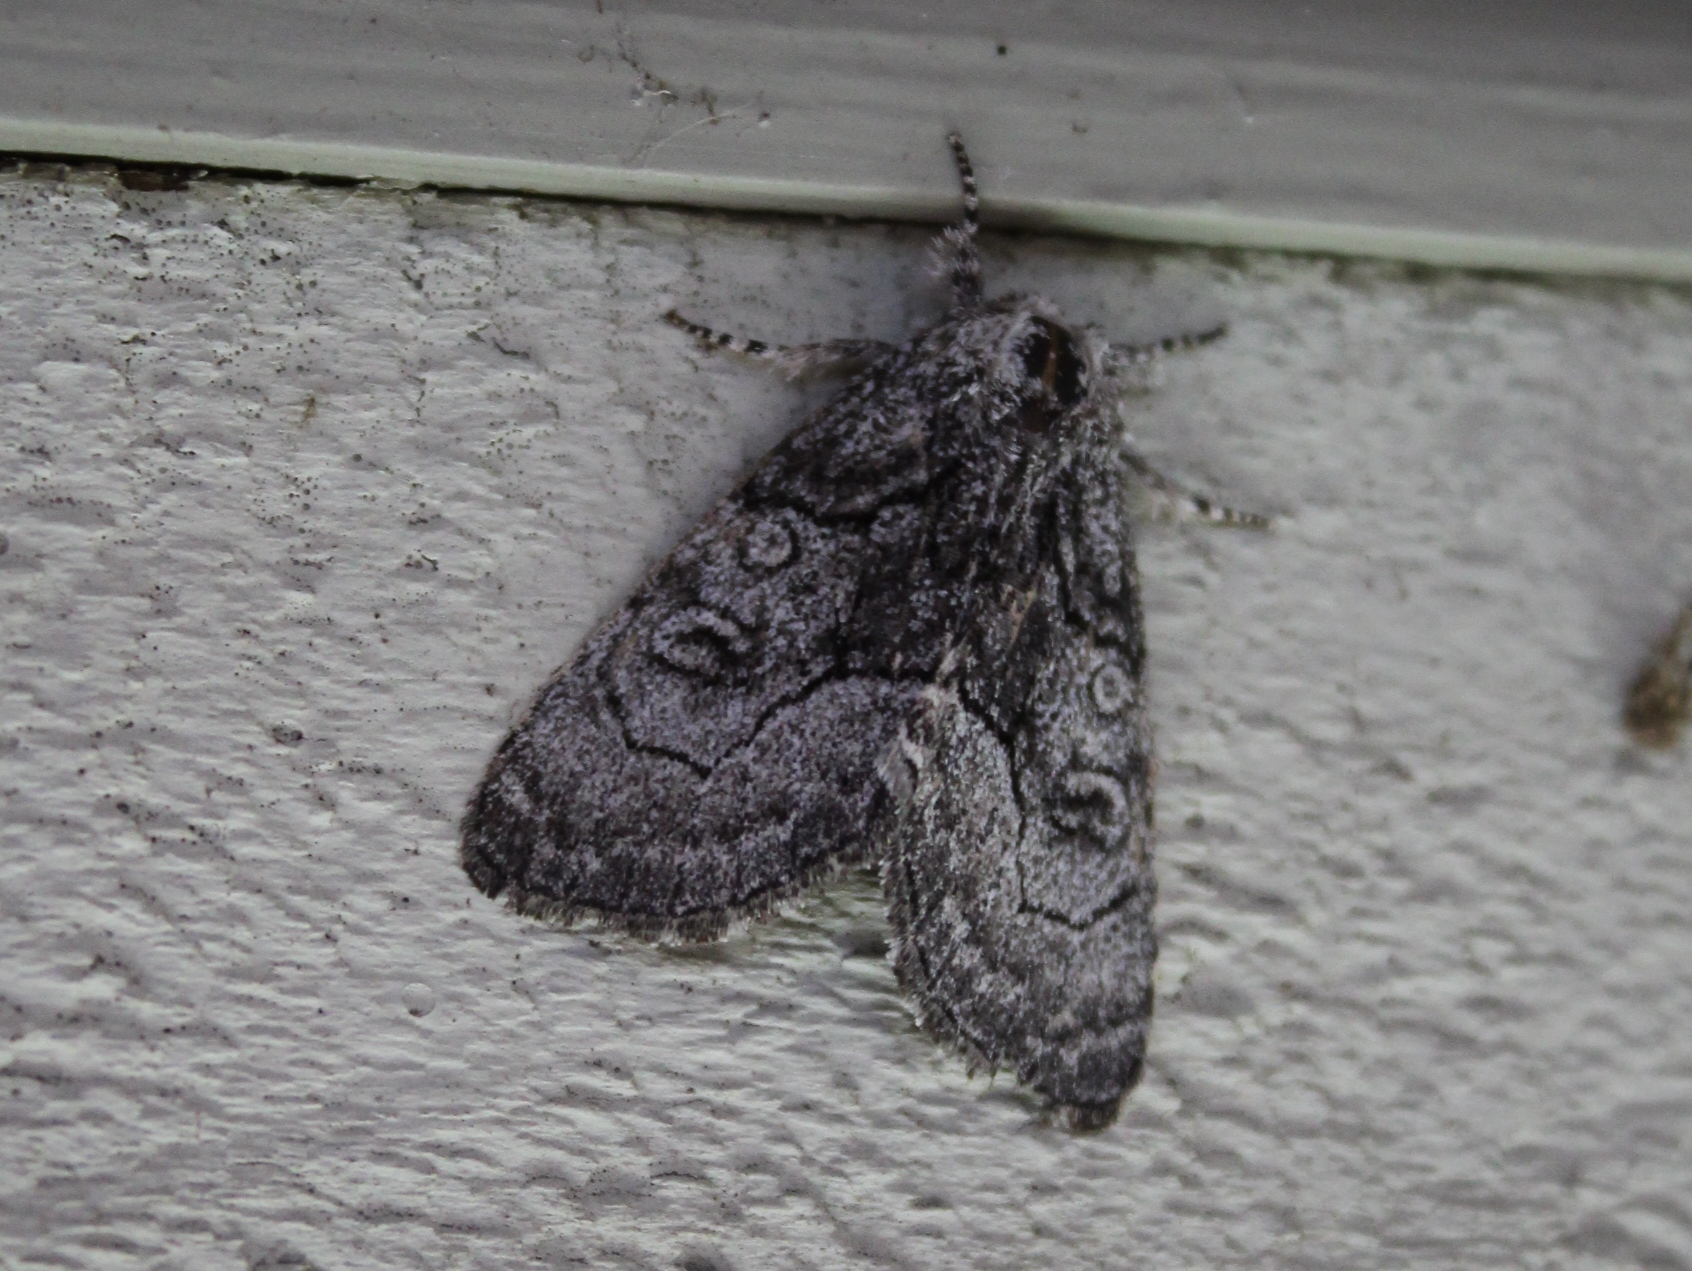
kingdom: Animalia
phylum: Arthropoda
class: Insecta
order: Lepidoptera
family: Noctuidae
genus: Raphia
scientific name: Raphia frater
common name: Brother
